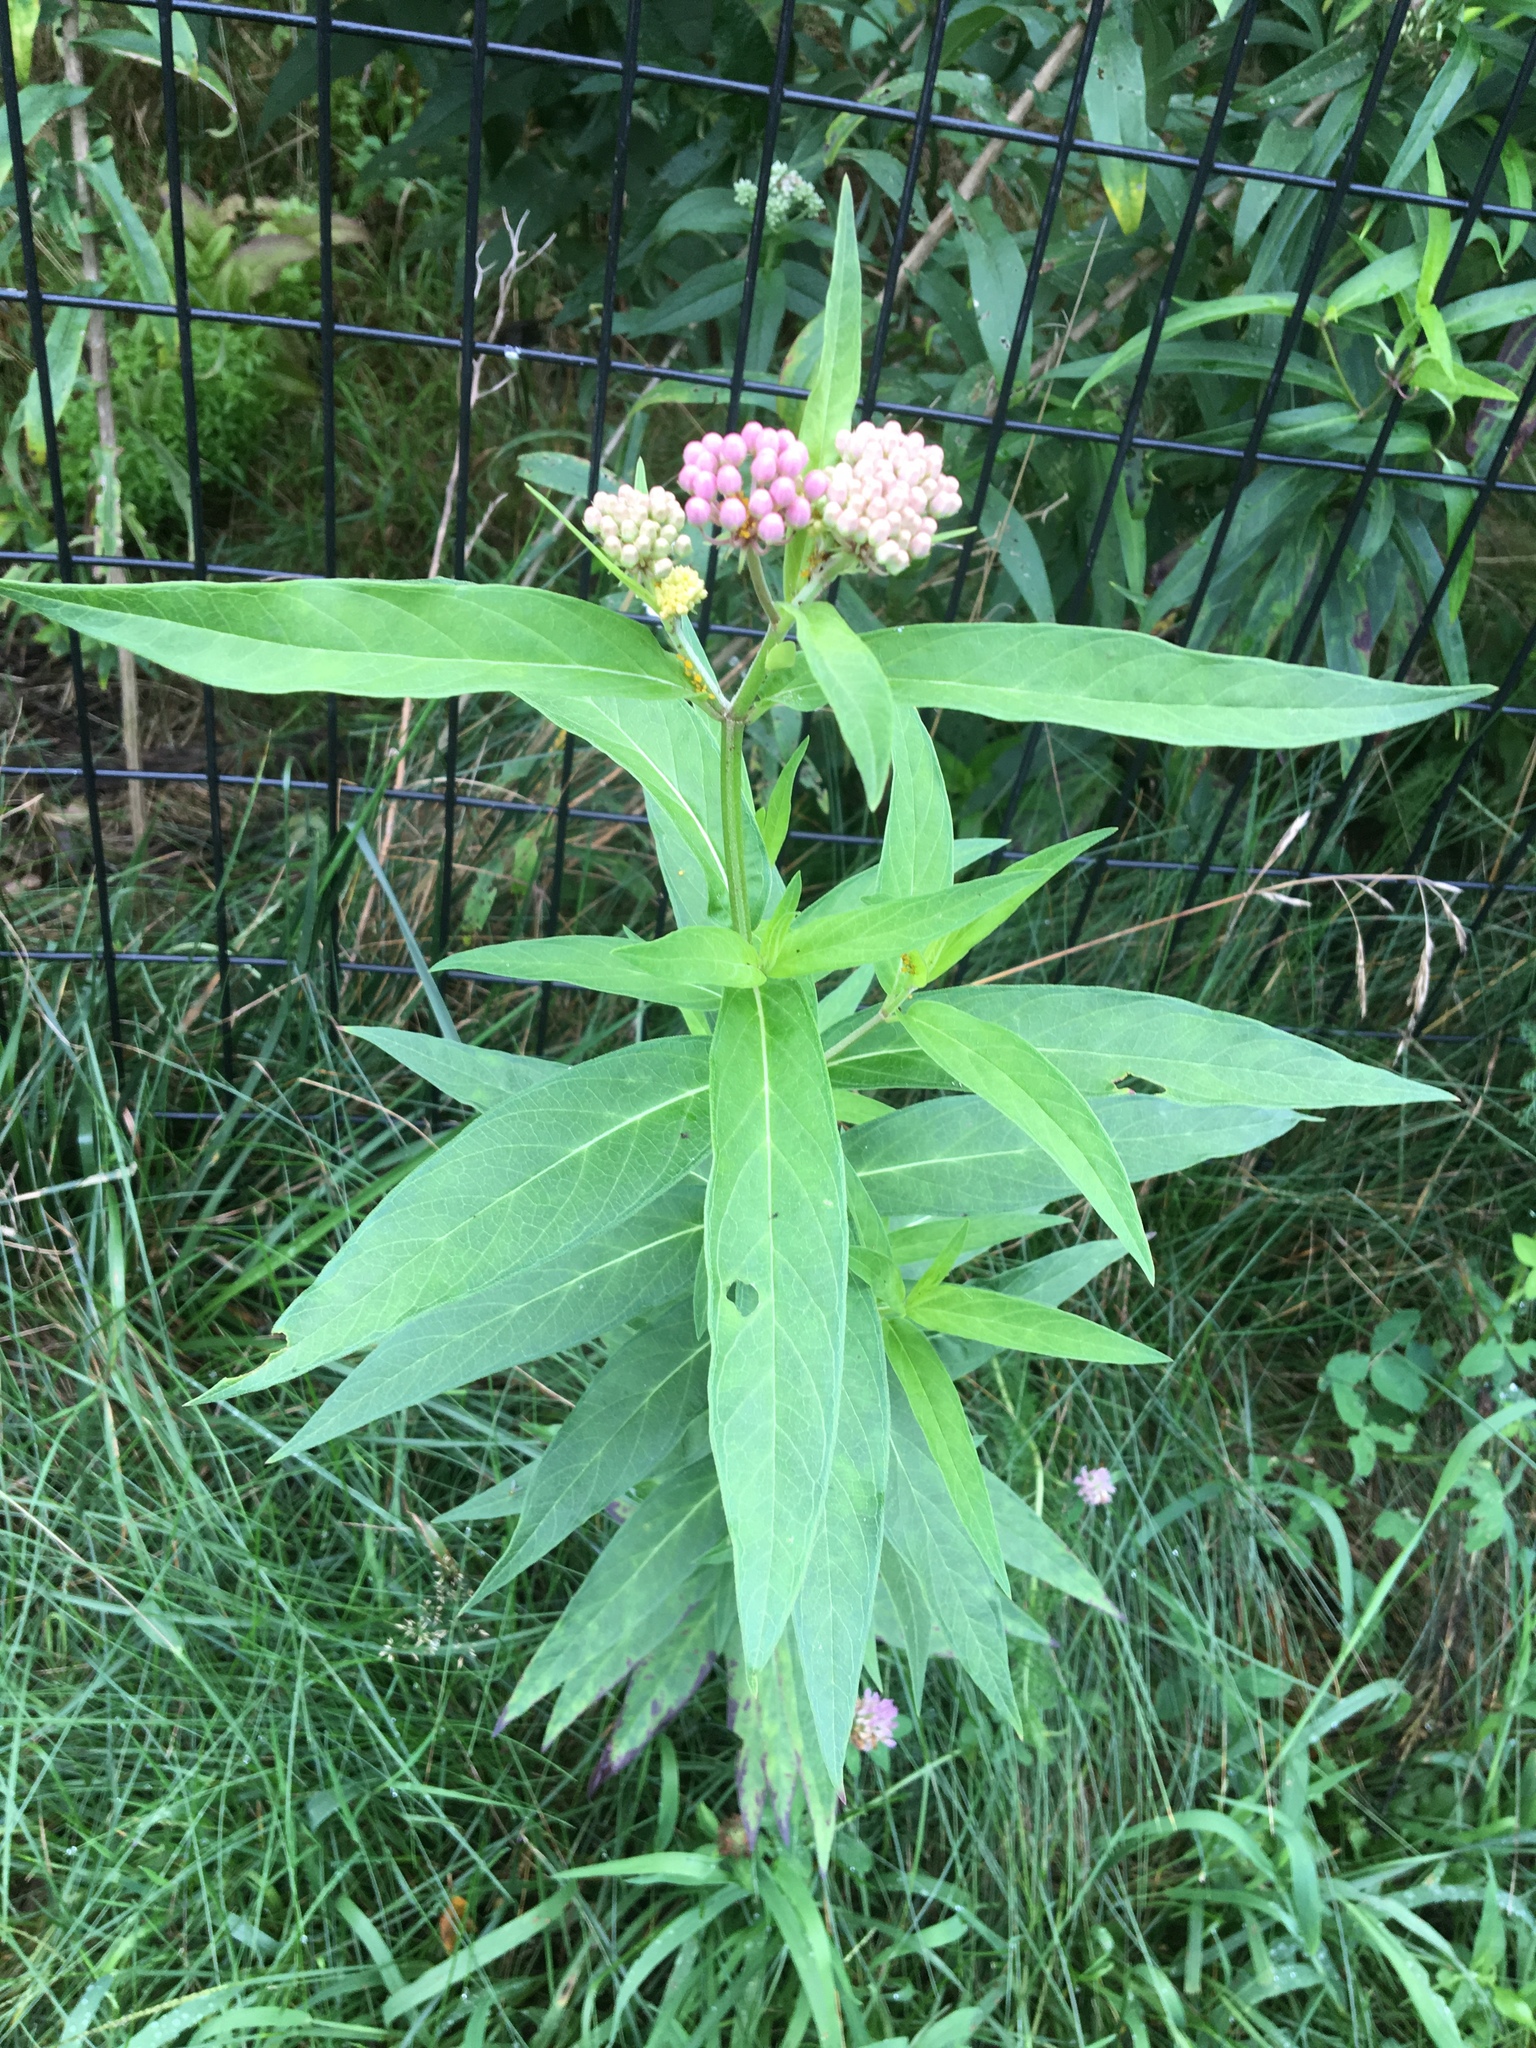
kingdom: Plantae
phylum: Tracheophyta
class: Magnoliopsida
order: Gentianales
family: Apocynaceae
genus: Asclepias
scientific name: Asclepias incarnata
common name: Swamp milkweed
